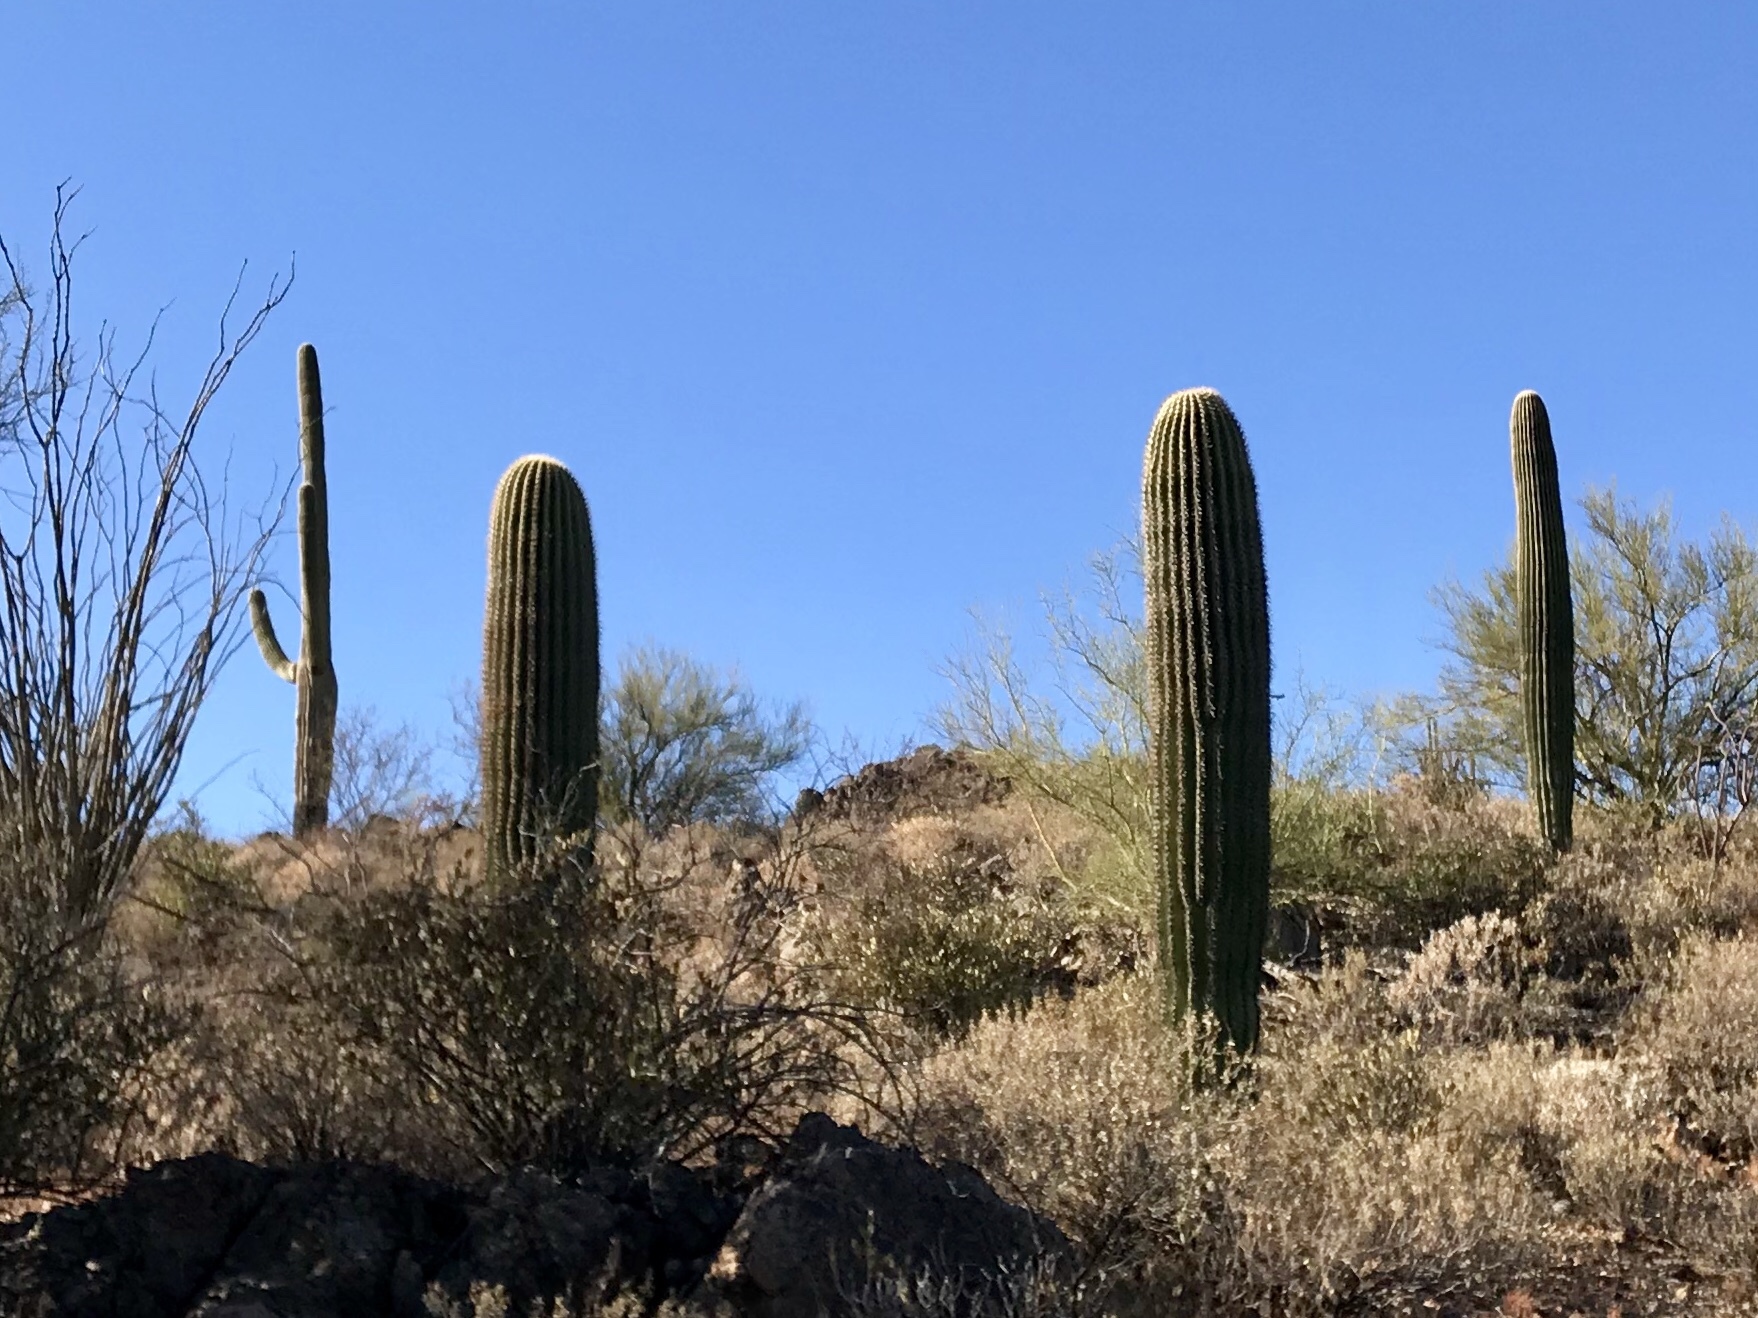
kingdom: Plantae
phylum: Tracheophyta
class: Magnoliopsida
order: Caryophyllales
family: Cactaceae
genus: Carnegiea
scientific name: Carnegiea gigantea
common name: Saguaro
